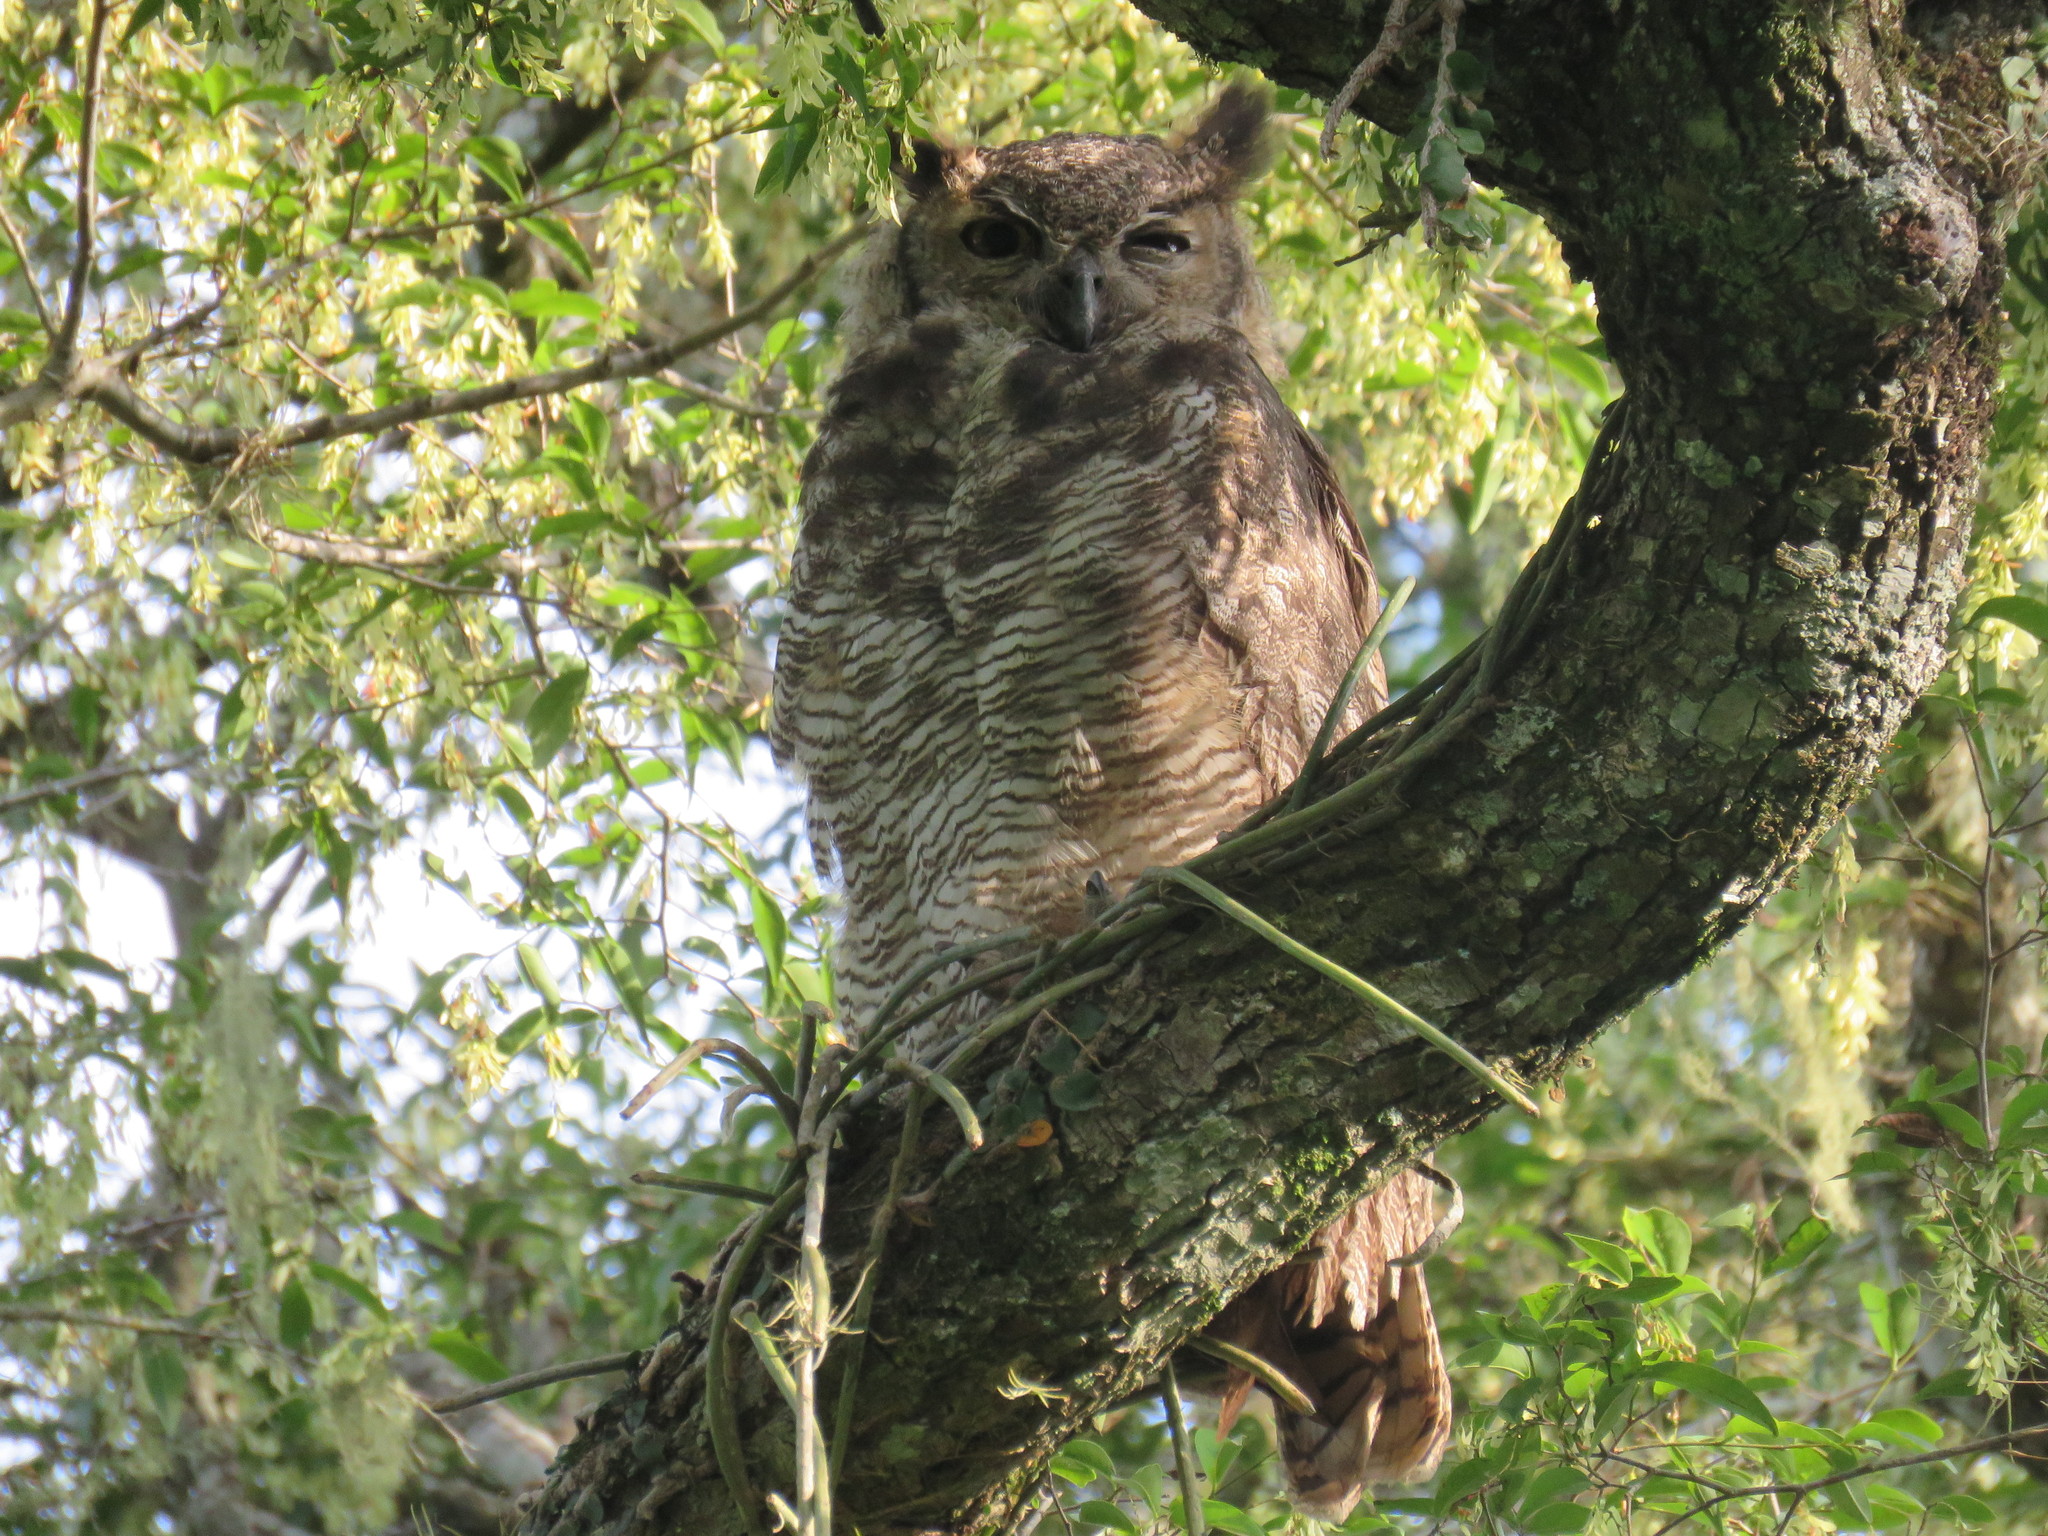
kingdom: Animalia
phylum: Chordata
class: Aves
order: Strigiformes
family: Strigidae
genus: Bubo
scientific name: Bubo virginianus
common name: Great horned owl
